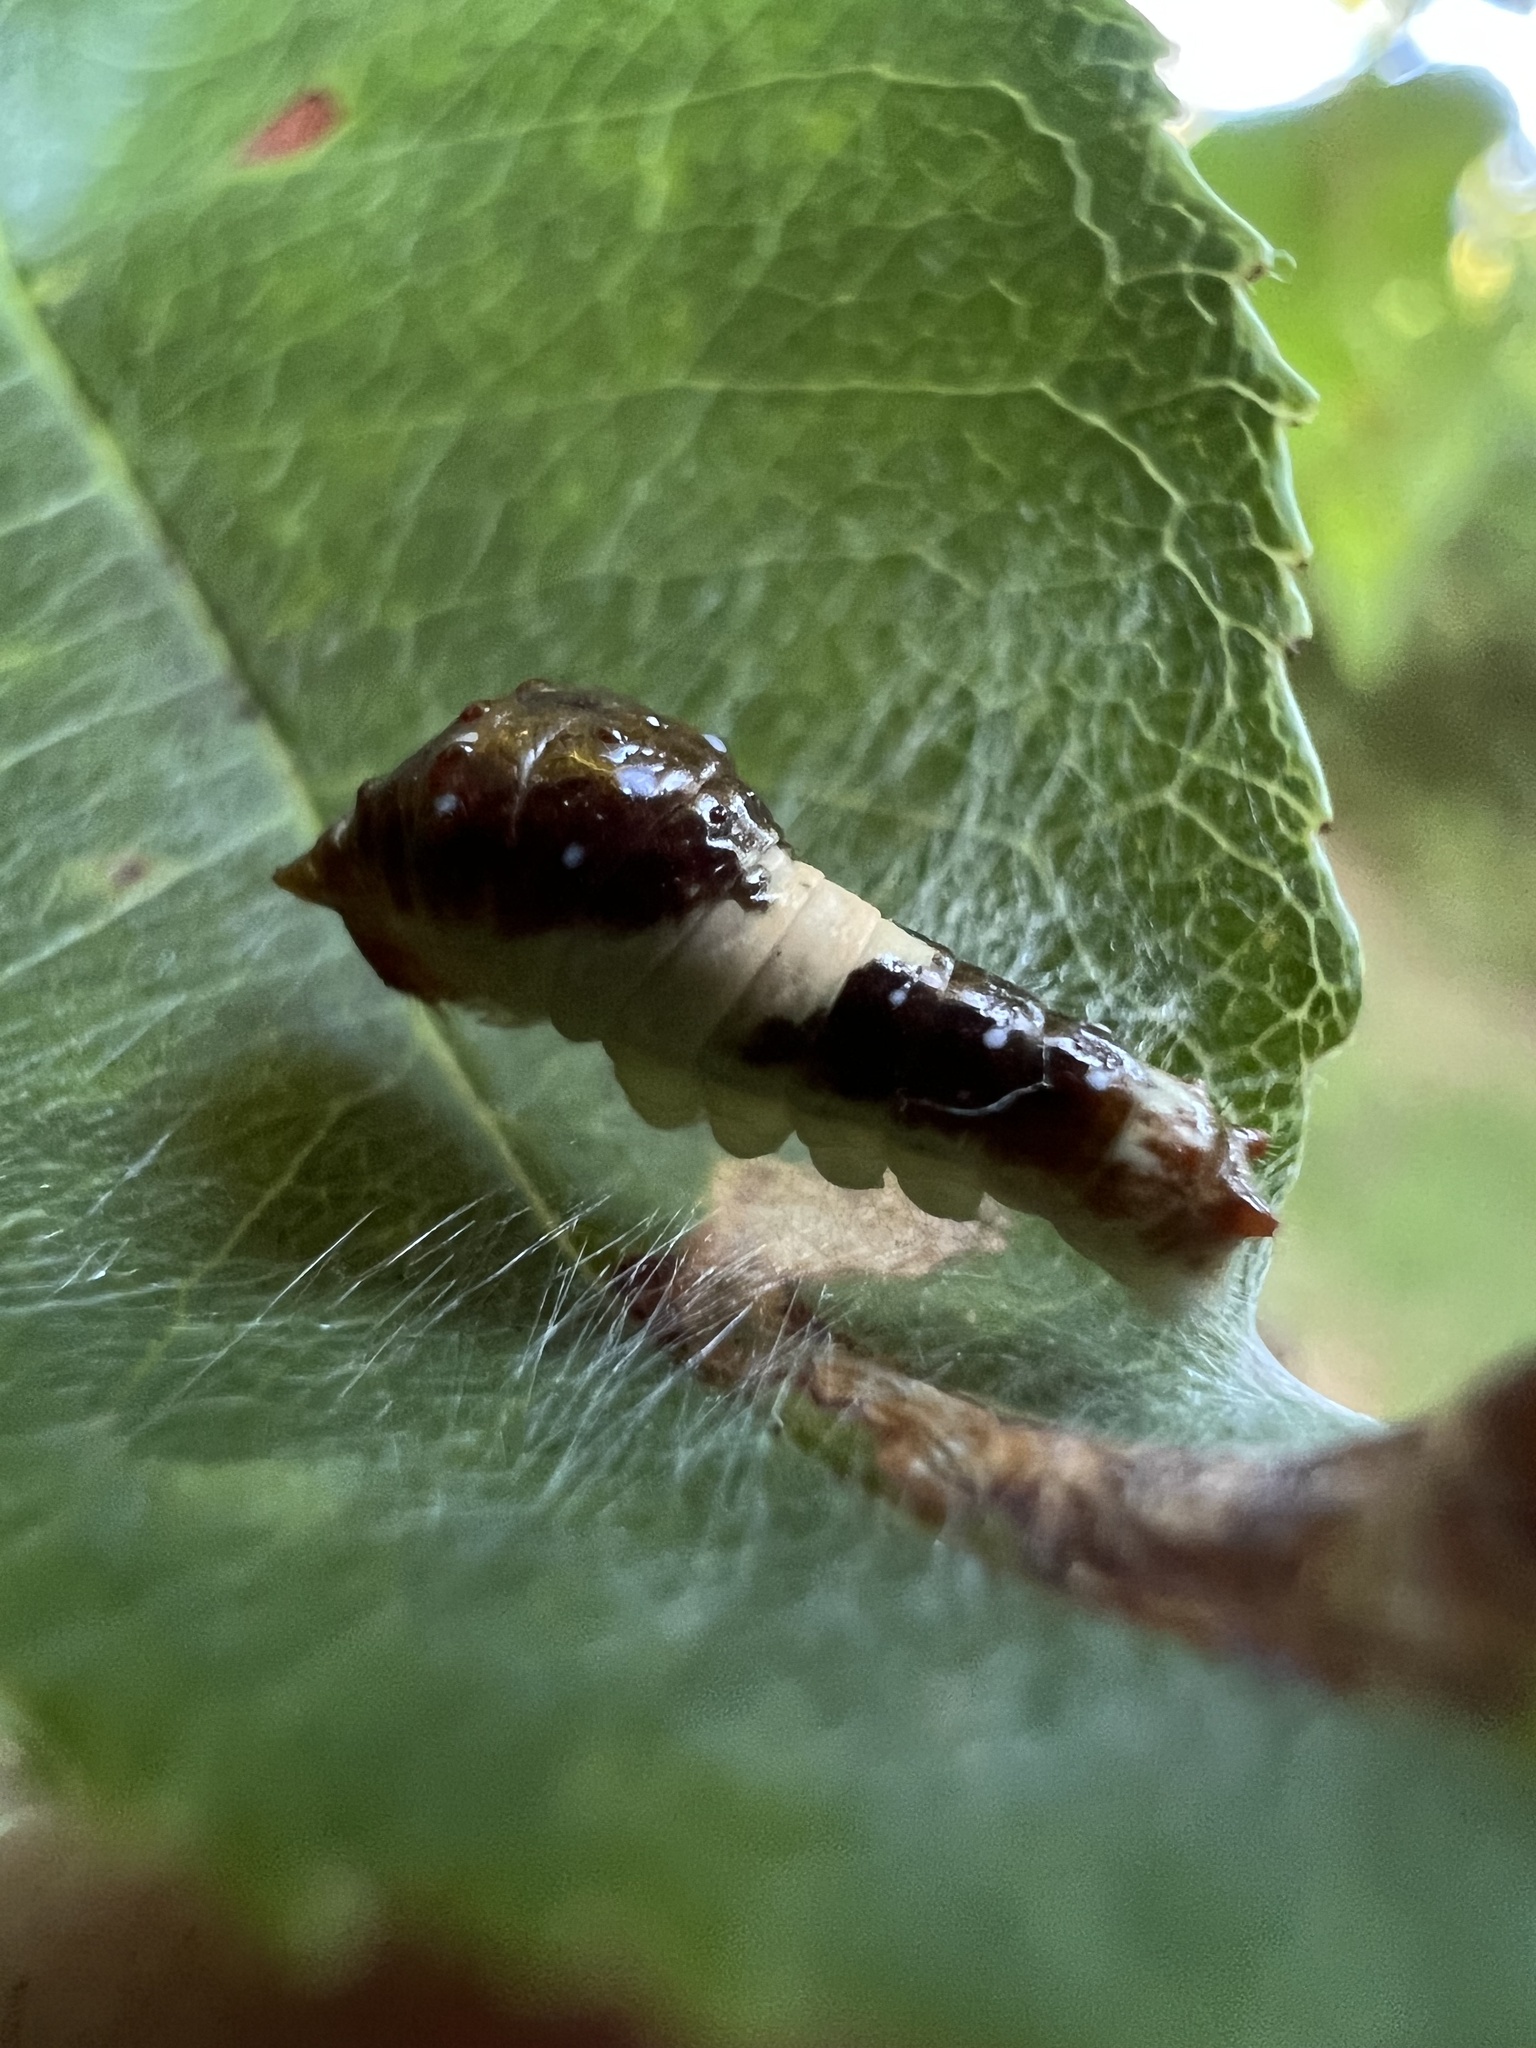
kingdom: Animalia
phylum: Arthropoda
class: Insecta
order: Lepidoptera
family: Papilionidae
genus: Papilio
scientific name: Papilio glaucus
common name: Tiger swallowtail
